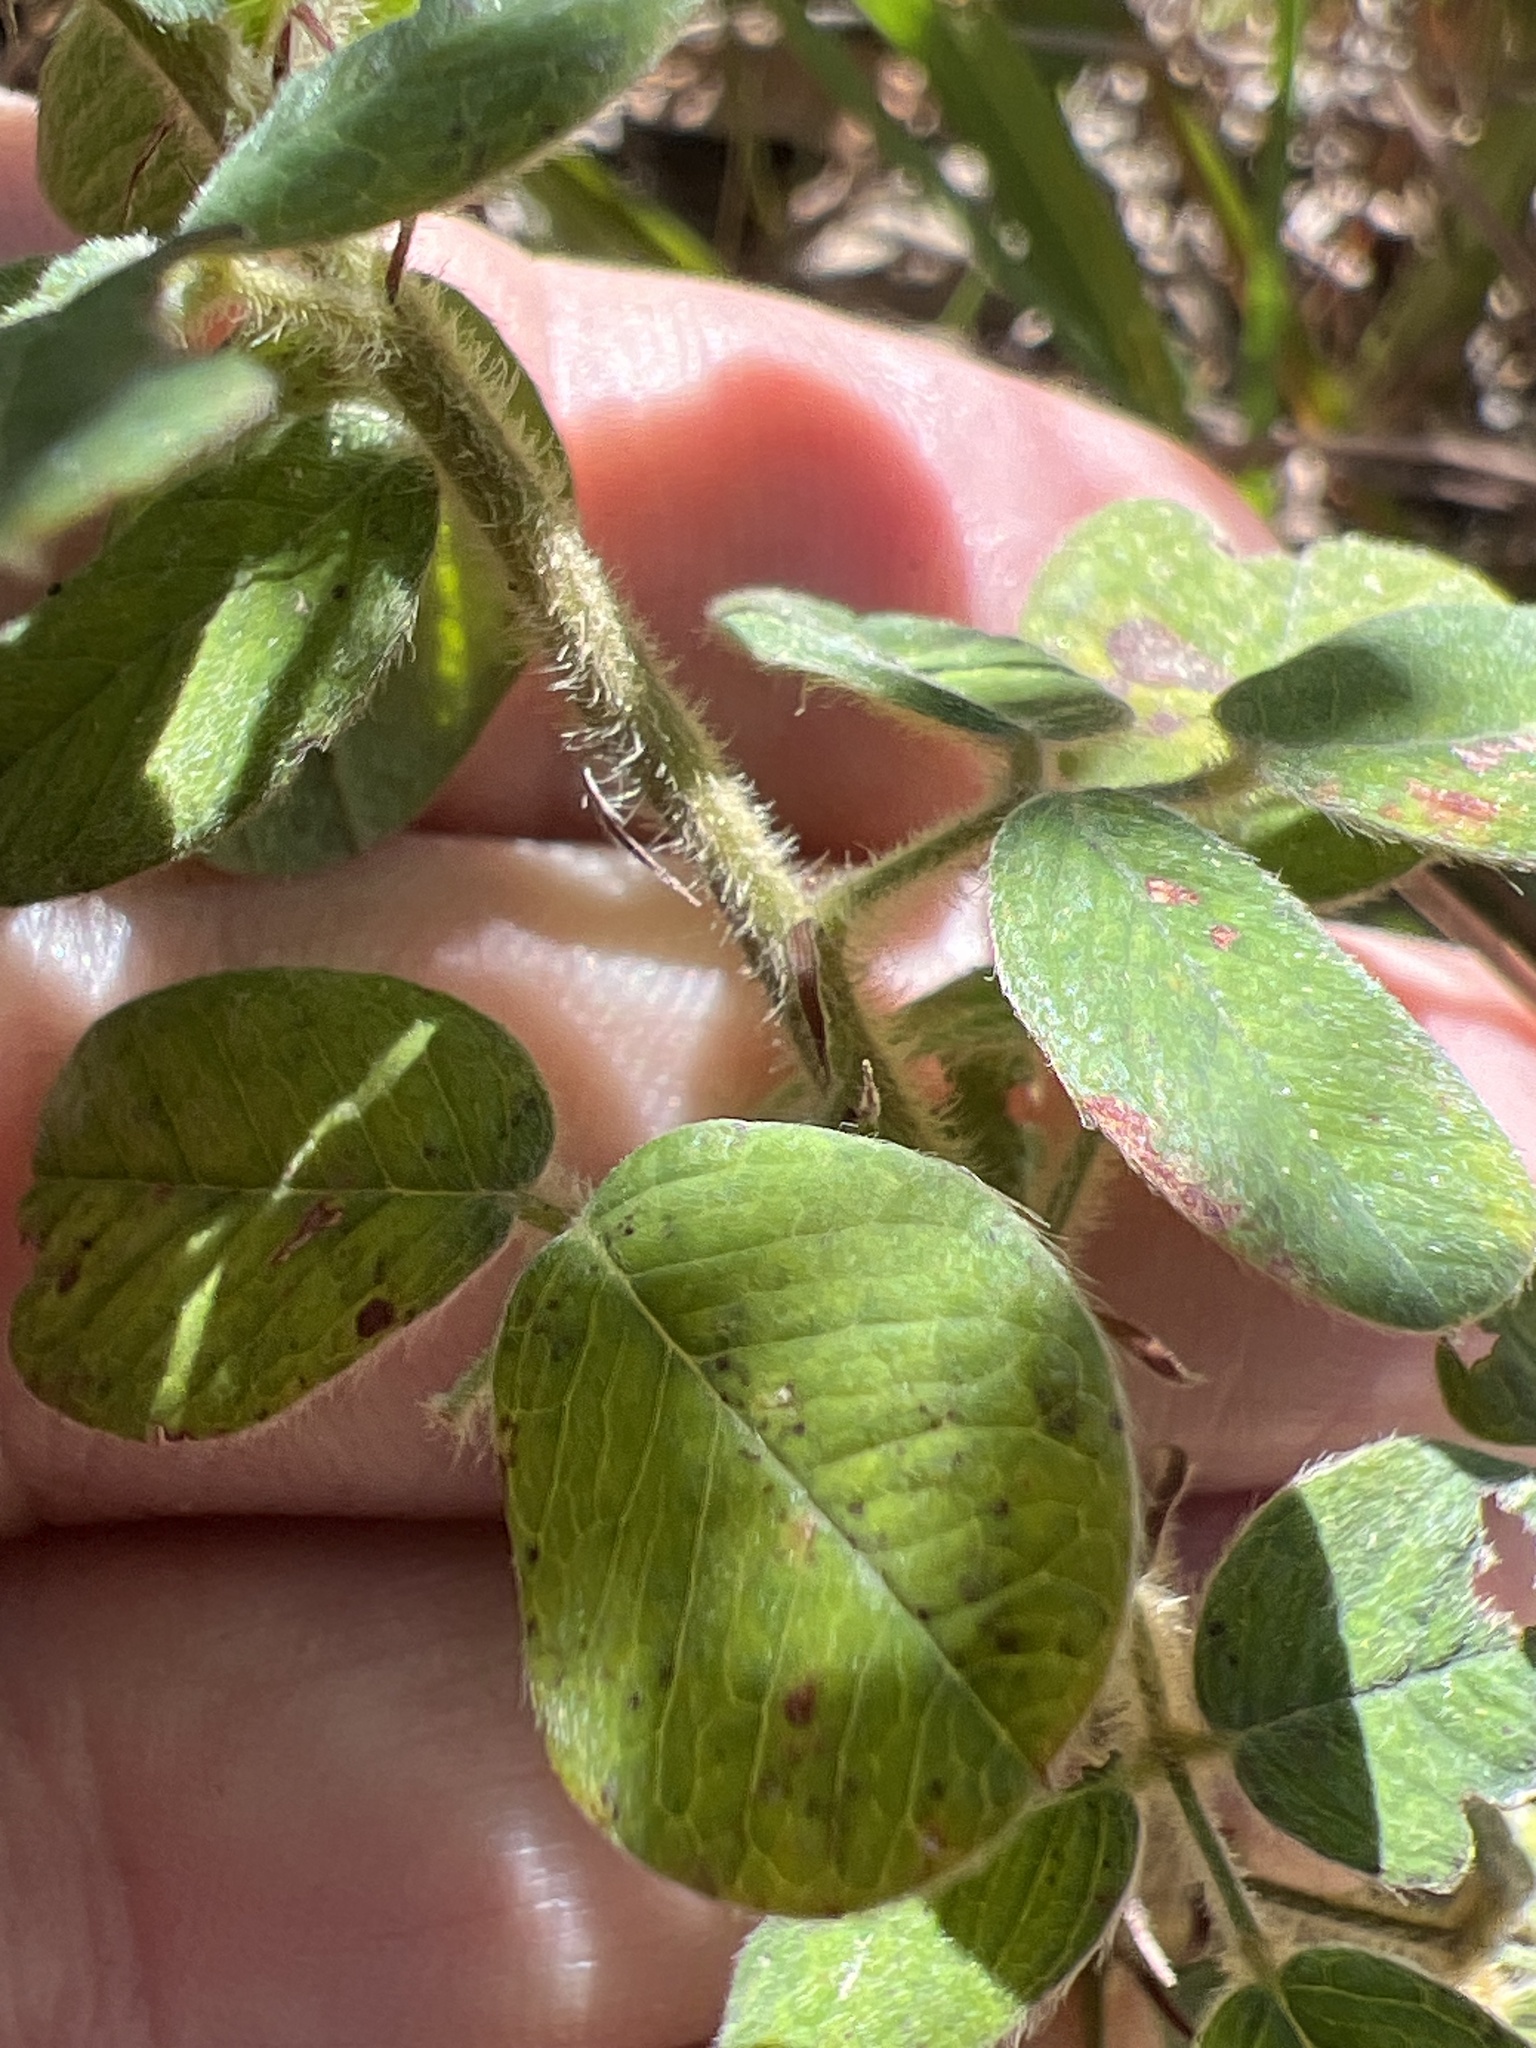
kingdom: Plantae
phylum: Tracheophyta
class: Magnoliopsida
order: Fabales
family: Fabaceae
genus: Lespedeza
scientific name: Lespedeza hirta
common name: Hairy lespedeza
